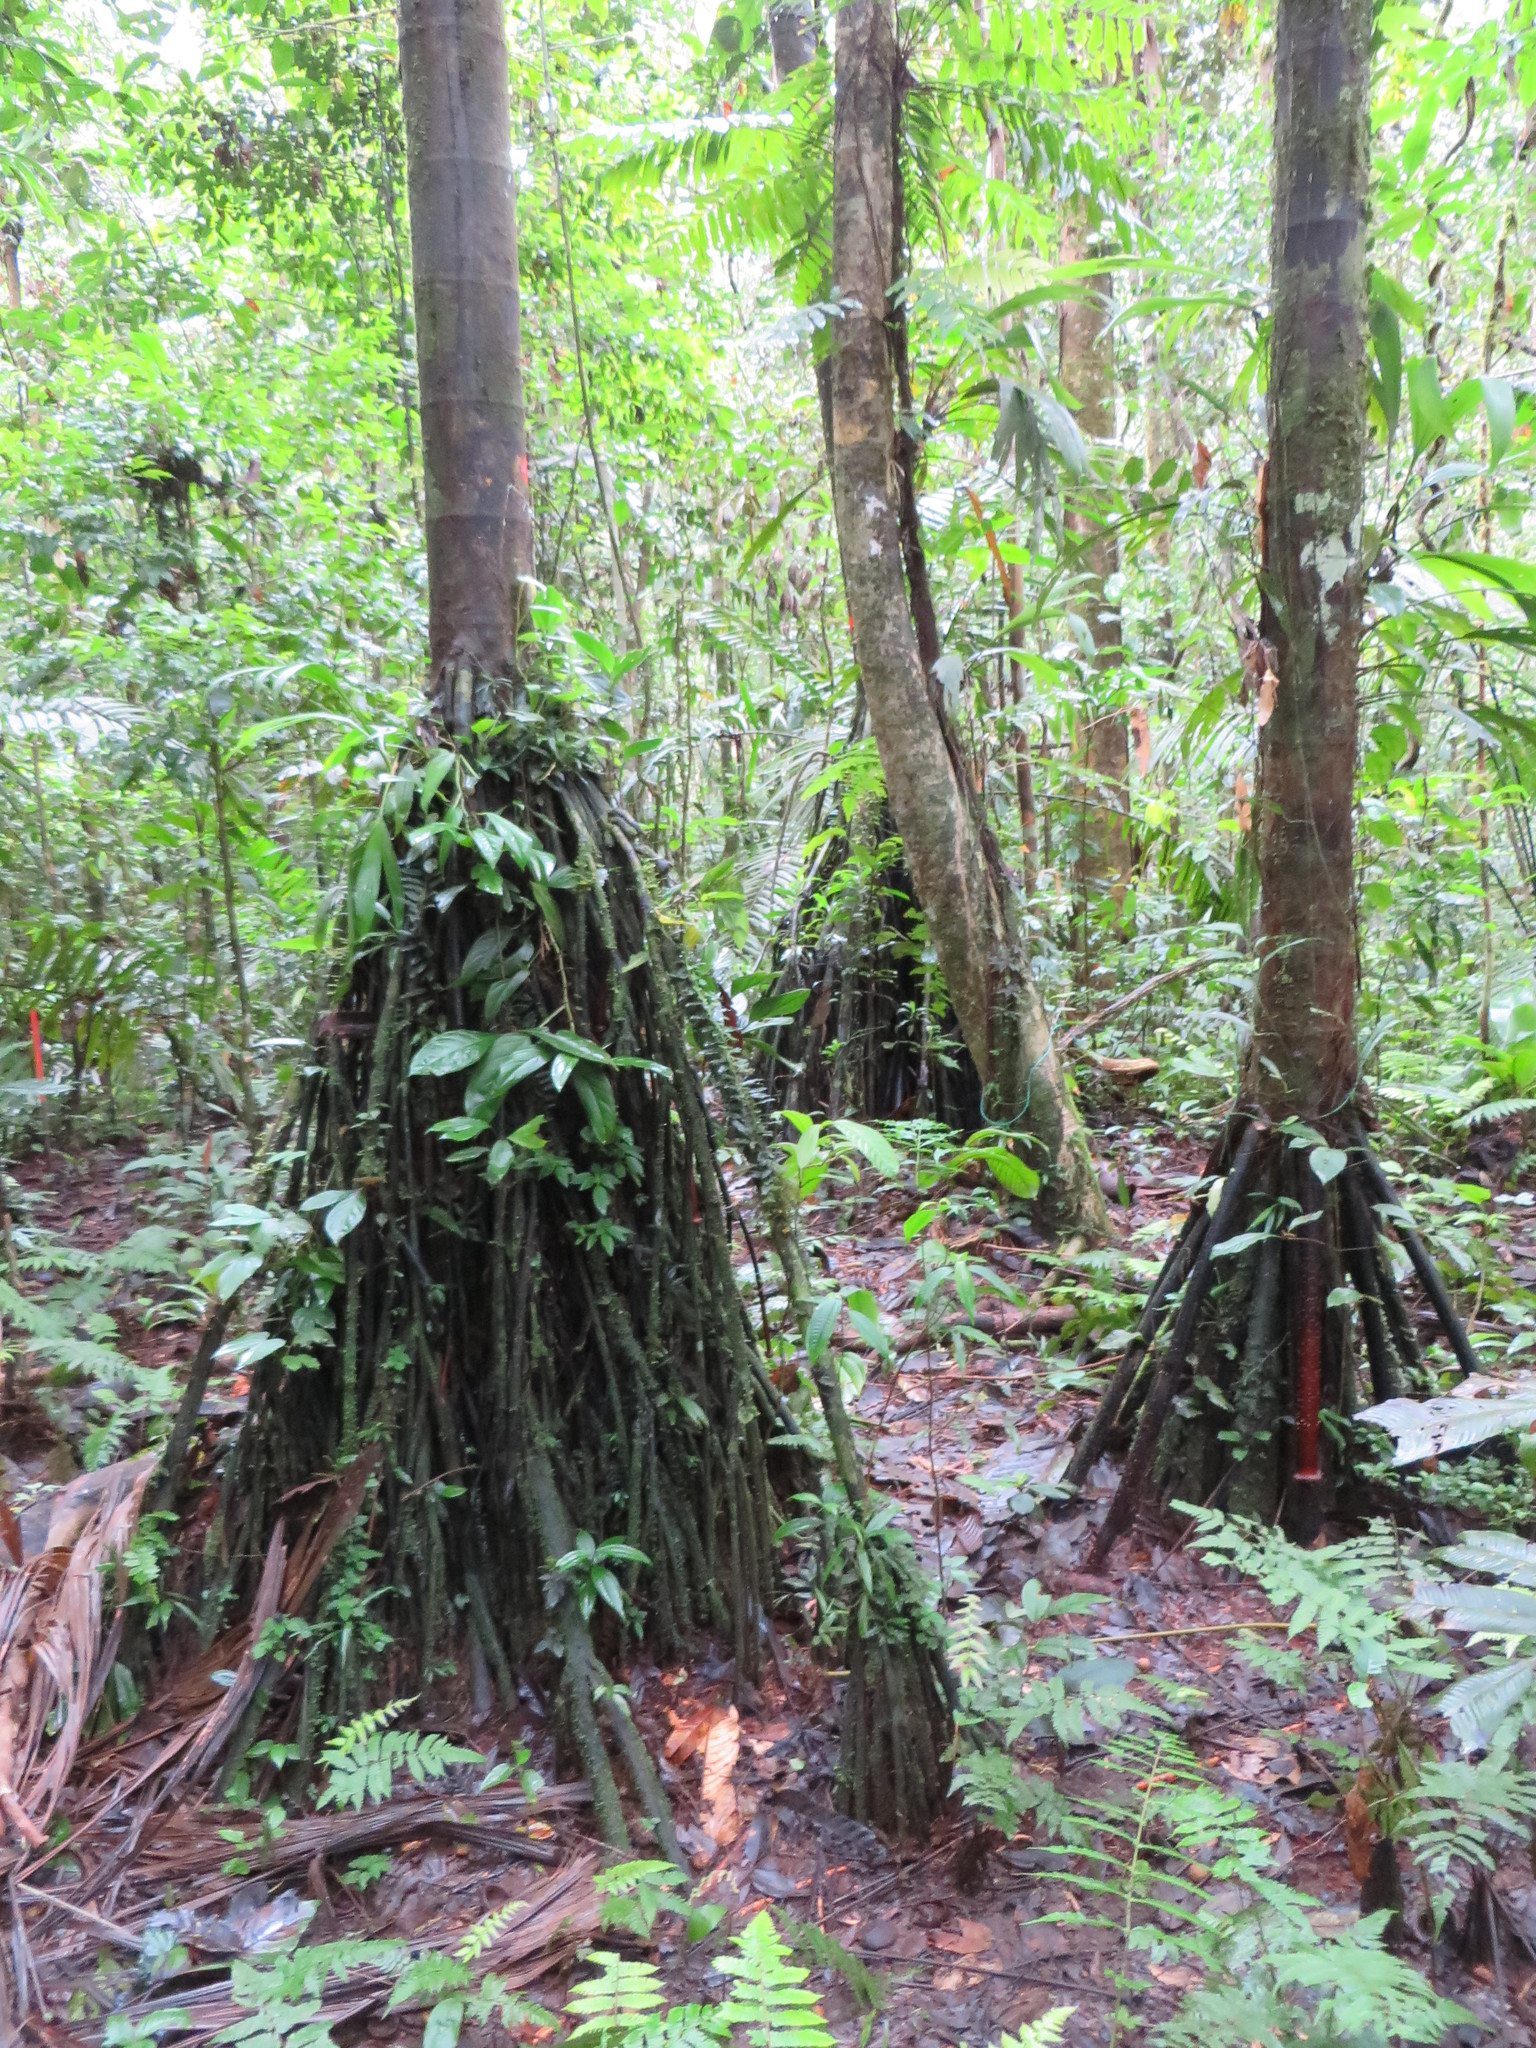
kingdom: Plantae
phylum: Tracheophyta
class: Liliopsida
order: Arecales
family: Arecaceae
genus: Iriartea
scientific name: Iriartea deltoidea
